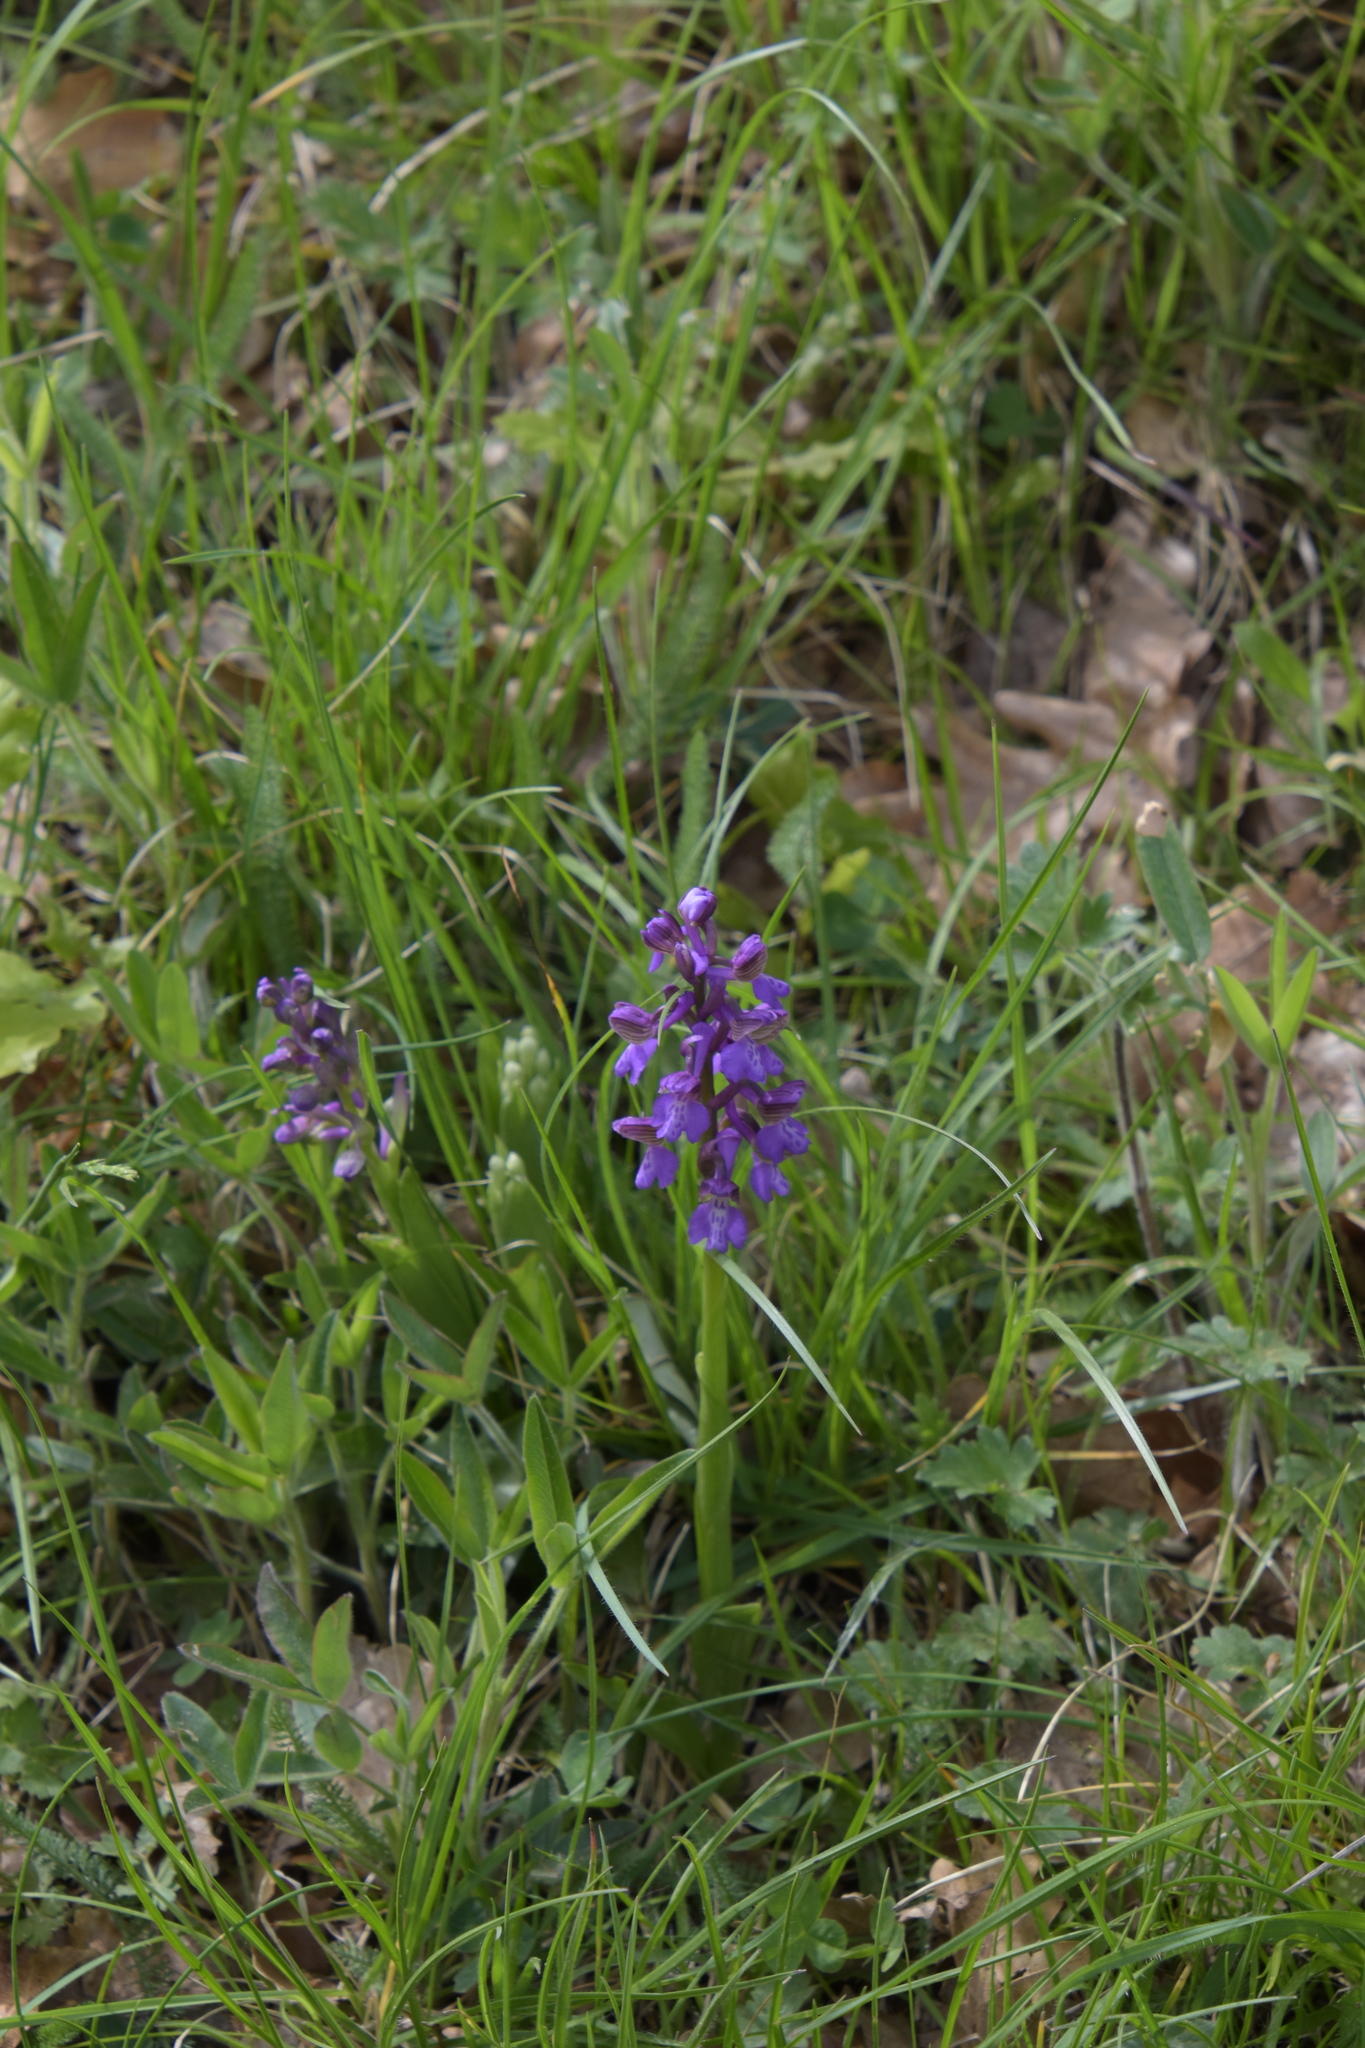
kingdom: Plantae
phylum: Tracheophyta
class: Liliopsida
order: Asparagales
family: Orchidaceae
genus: Anacamptis
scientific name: Anacamptis morio
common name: Green-winged orchid
